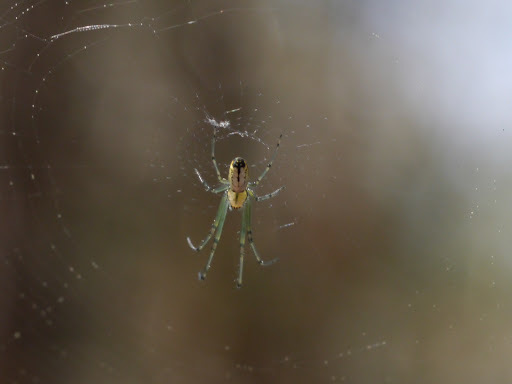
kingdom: Animalia
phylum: Arthropoda
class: Arachnida
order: Araneae
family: Tetragnathidae
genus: Leucauge
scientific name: Leucauge venusta
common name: Longjawed orb weavers
